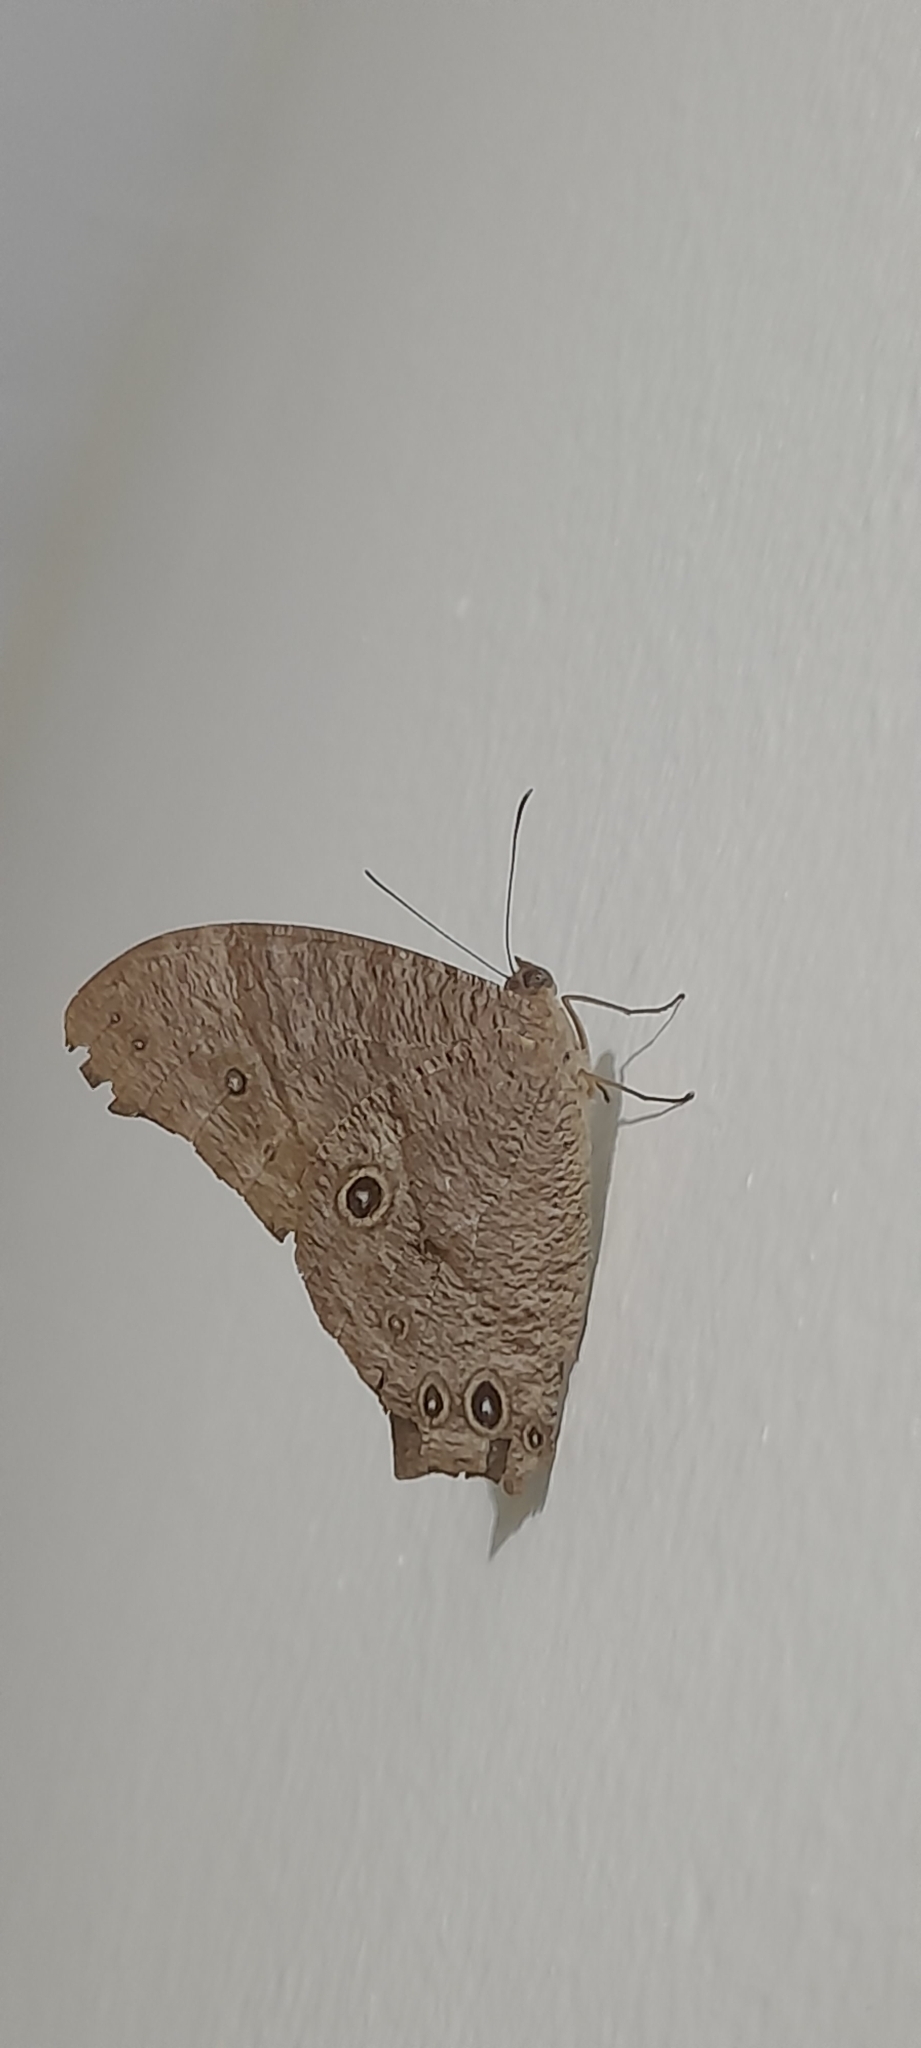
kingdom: Animalia
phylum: Arthropoda
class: Insecta
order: Lepidoptera
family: Nymphalidae
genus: Melanitis
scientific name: Melanitis leda
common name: Twilight brown
